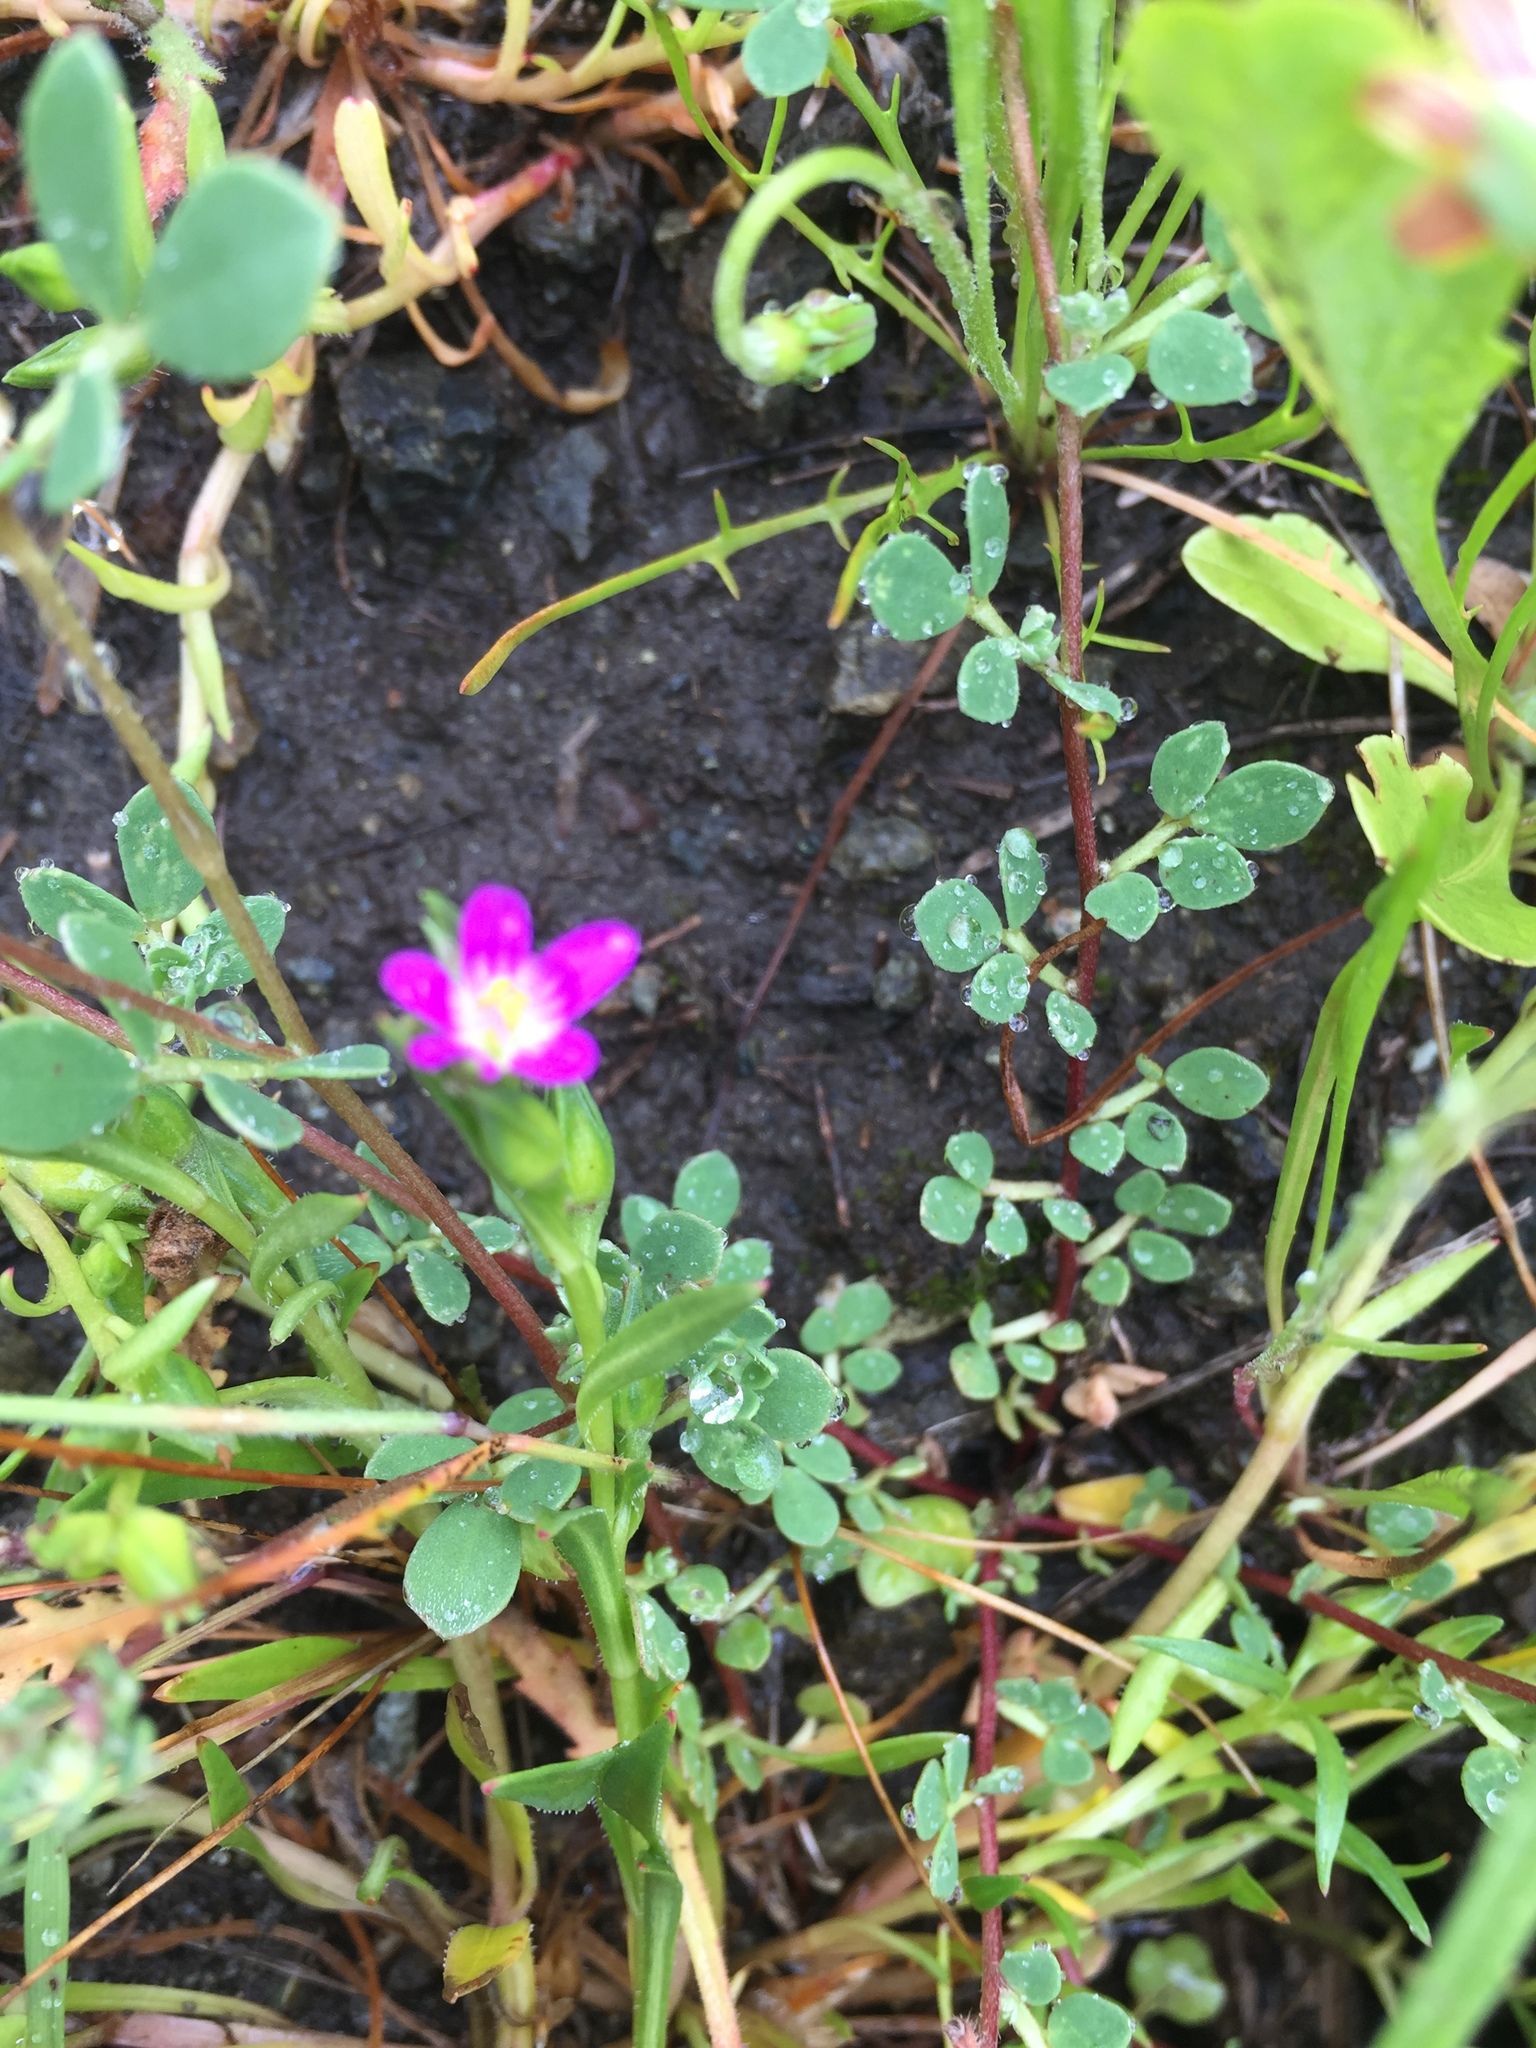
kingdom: Plantae
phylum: Tracheophyta
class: Magnoliopsida
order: Caryophyllales
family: Montiaceae
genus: Calandrinia
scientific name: Calandrinia menziesii
